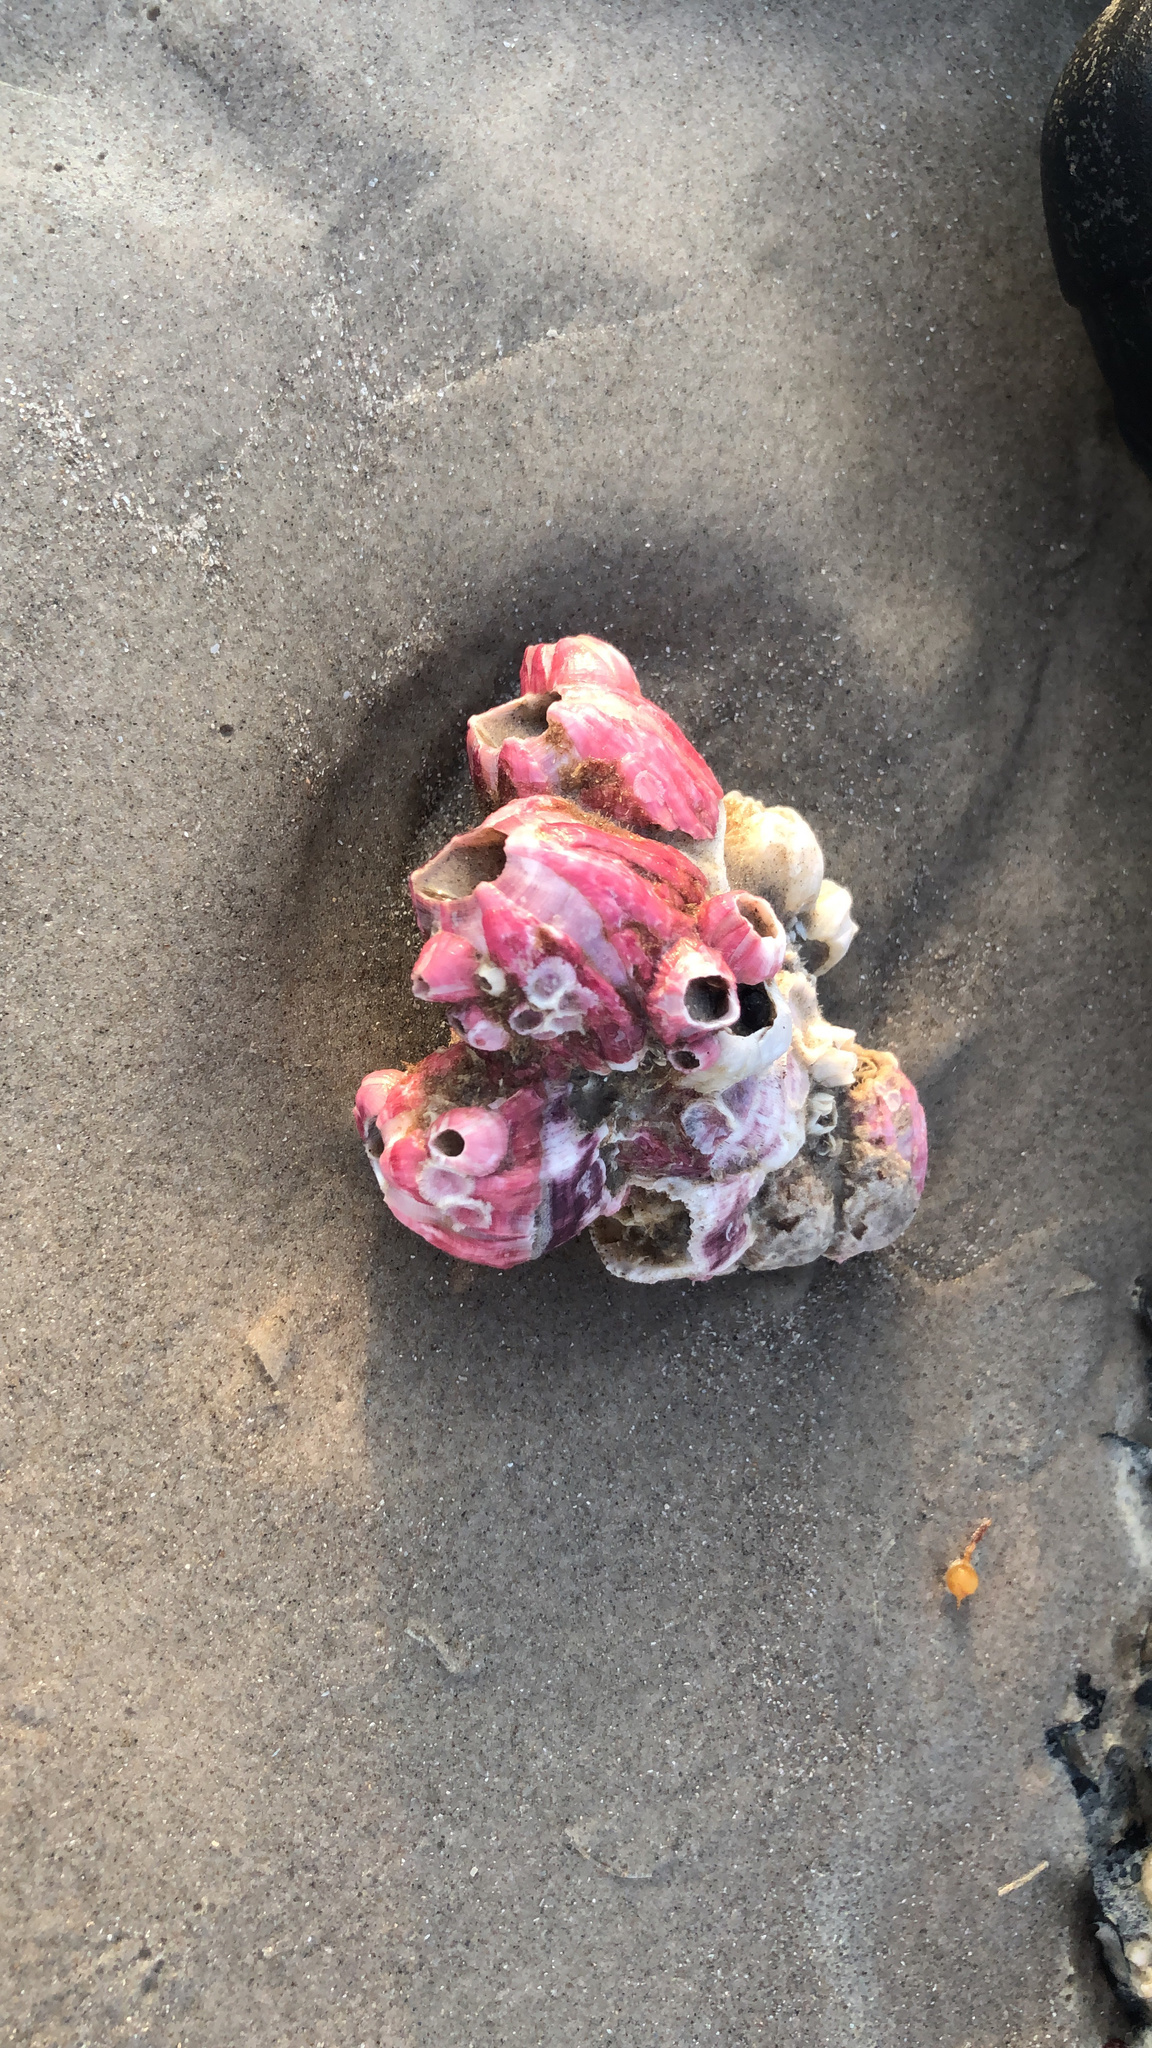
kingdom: Animalia
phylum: Arthropoda
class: Maxillopoda
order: Sessilia
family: Balanidae
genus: Megabalanus
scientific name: Megabalanus tintinnabulum
